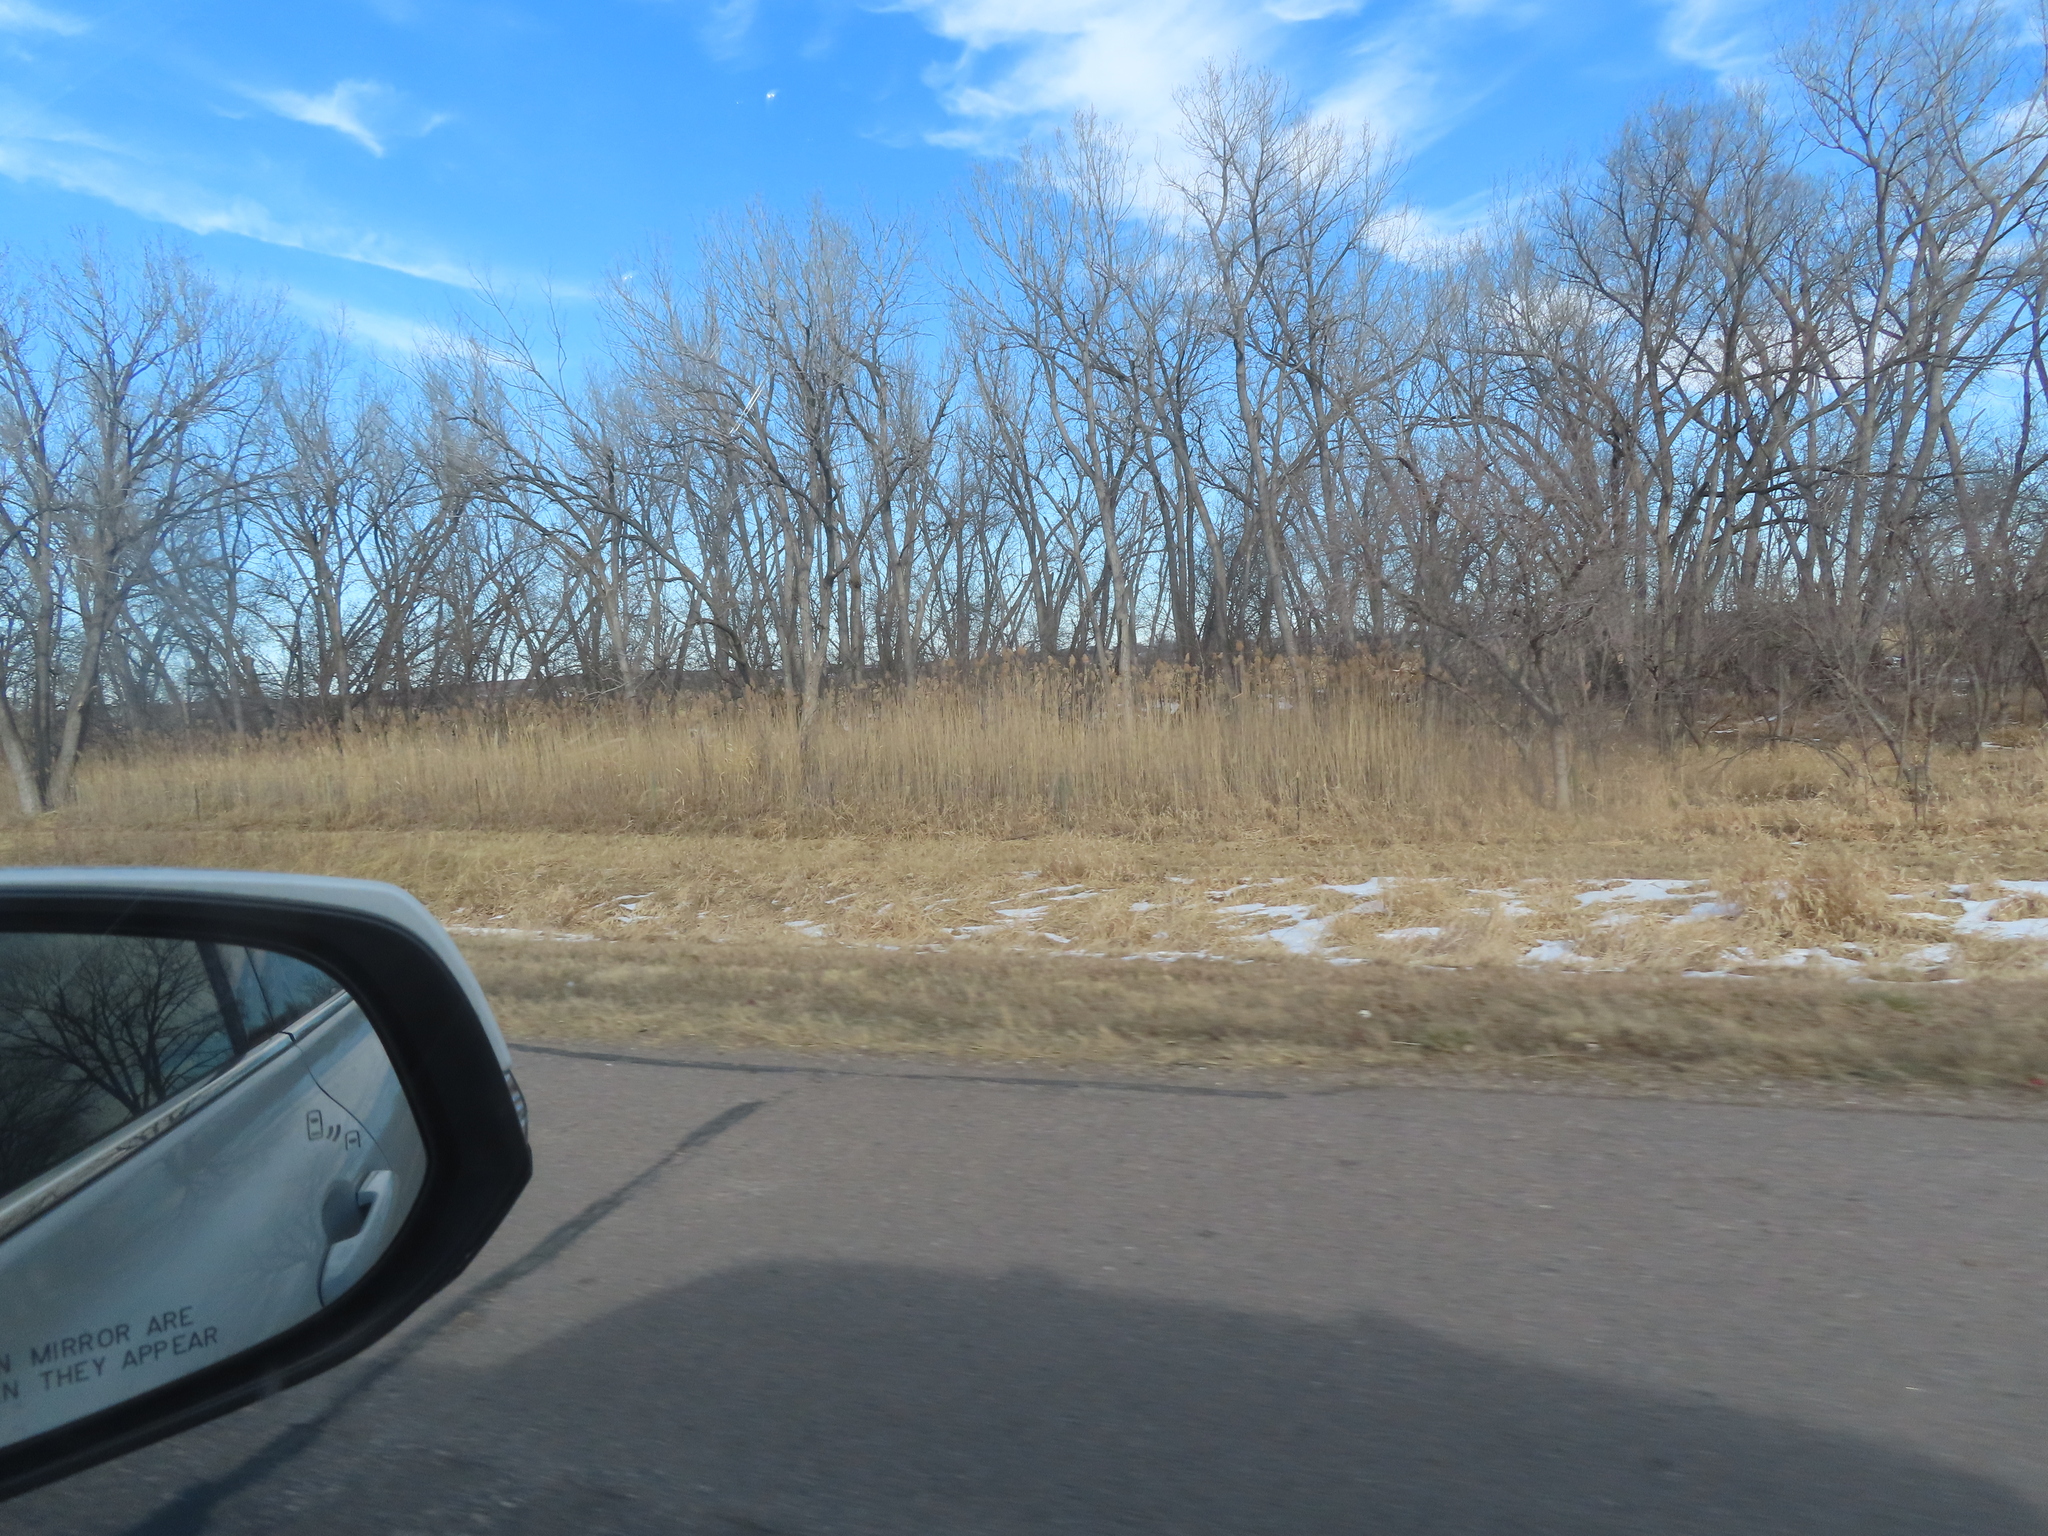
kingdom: Plantae
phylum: Tracheophyta
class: Liliopsida
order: Poales
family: Poaceae
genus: Phragmites
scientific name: Phragmites australis
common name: Common reed
